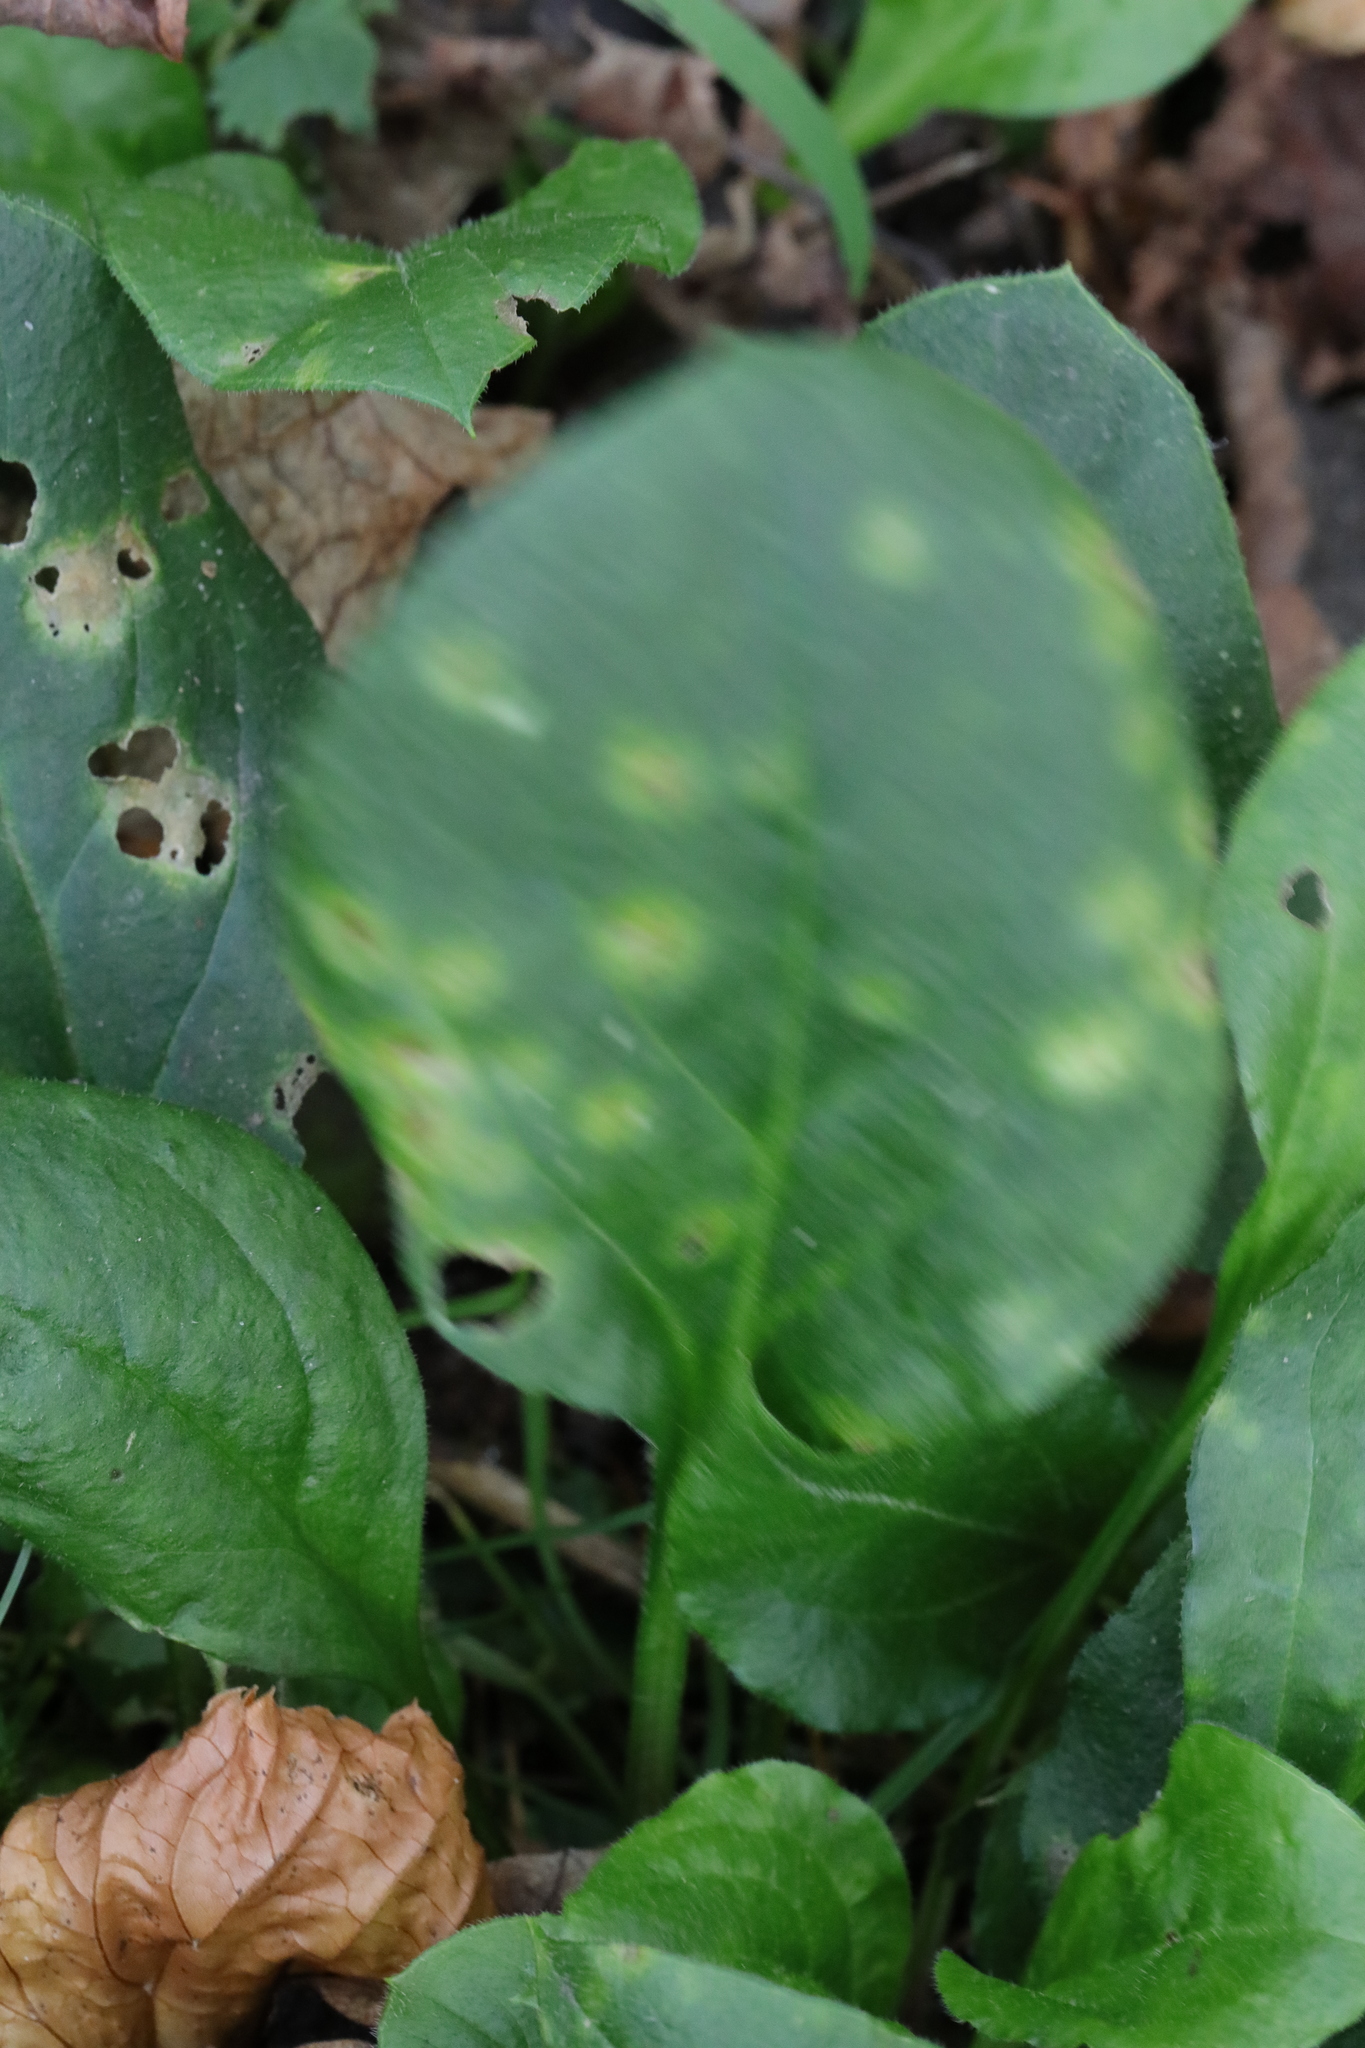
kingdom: Plantae
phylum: Tracheophyta
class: Magnoliopsida
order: Caryophyllales
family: Caryophyllaceae
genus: Silene
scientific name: Silene dioica
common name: Red campion
